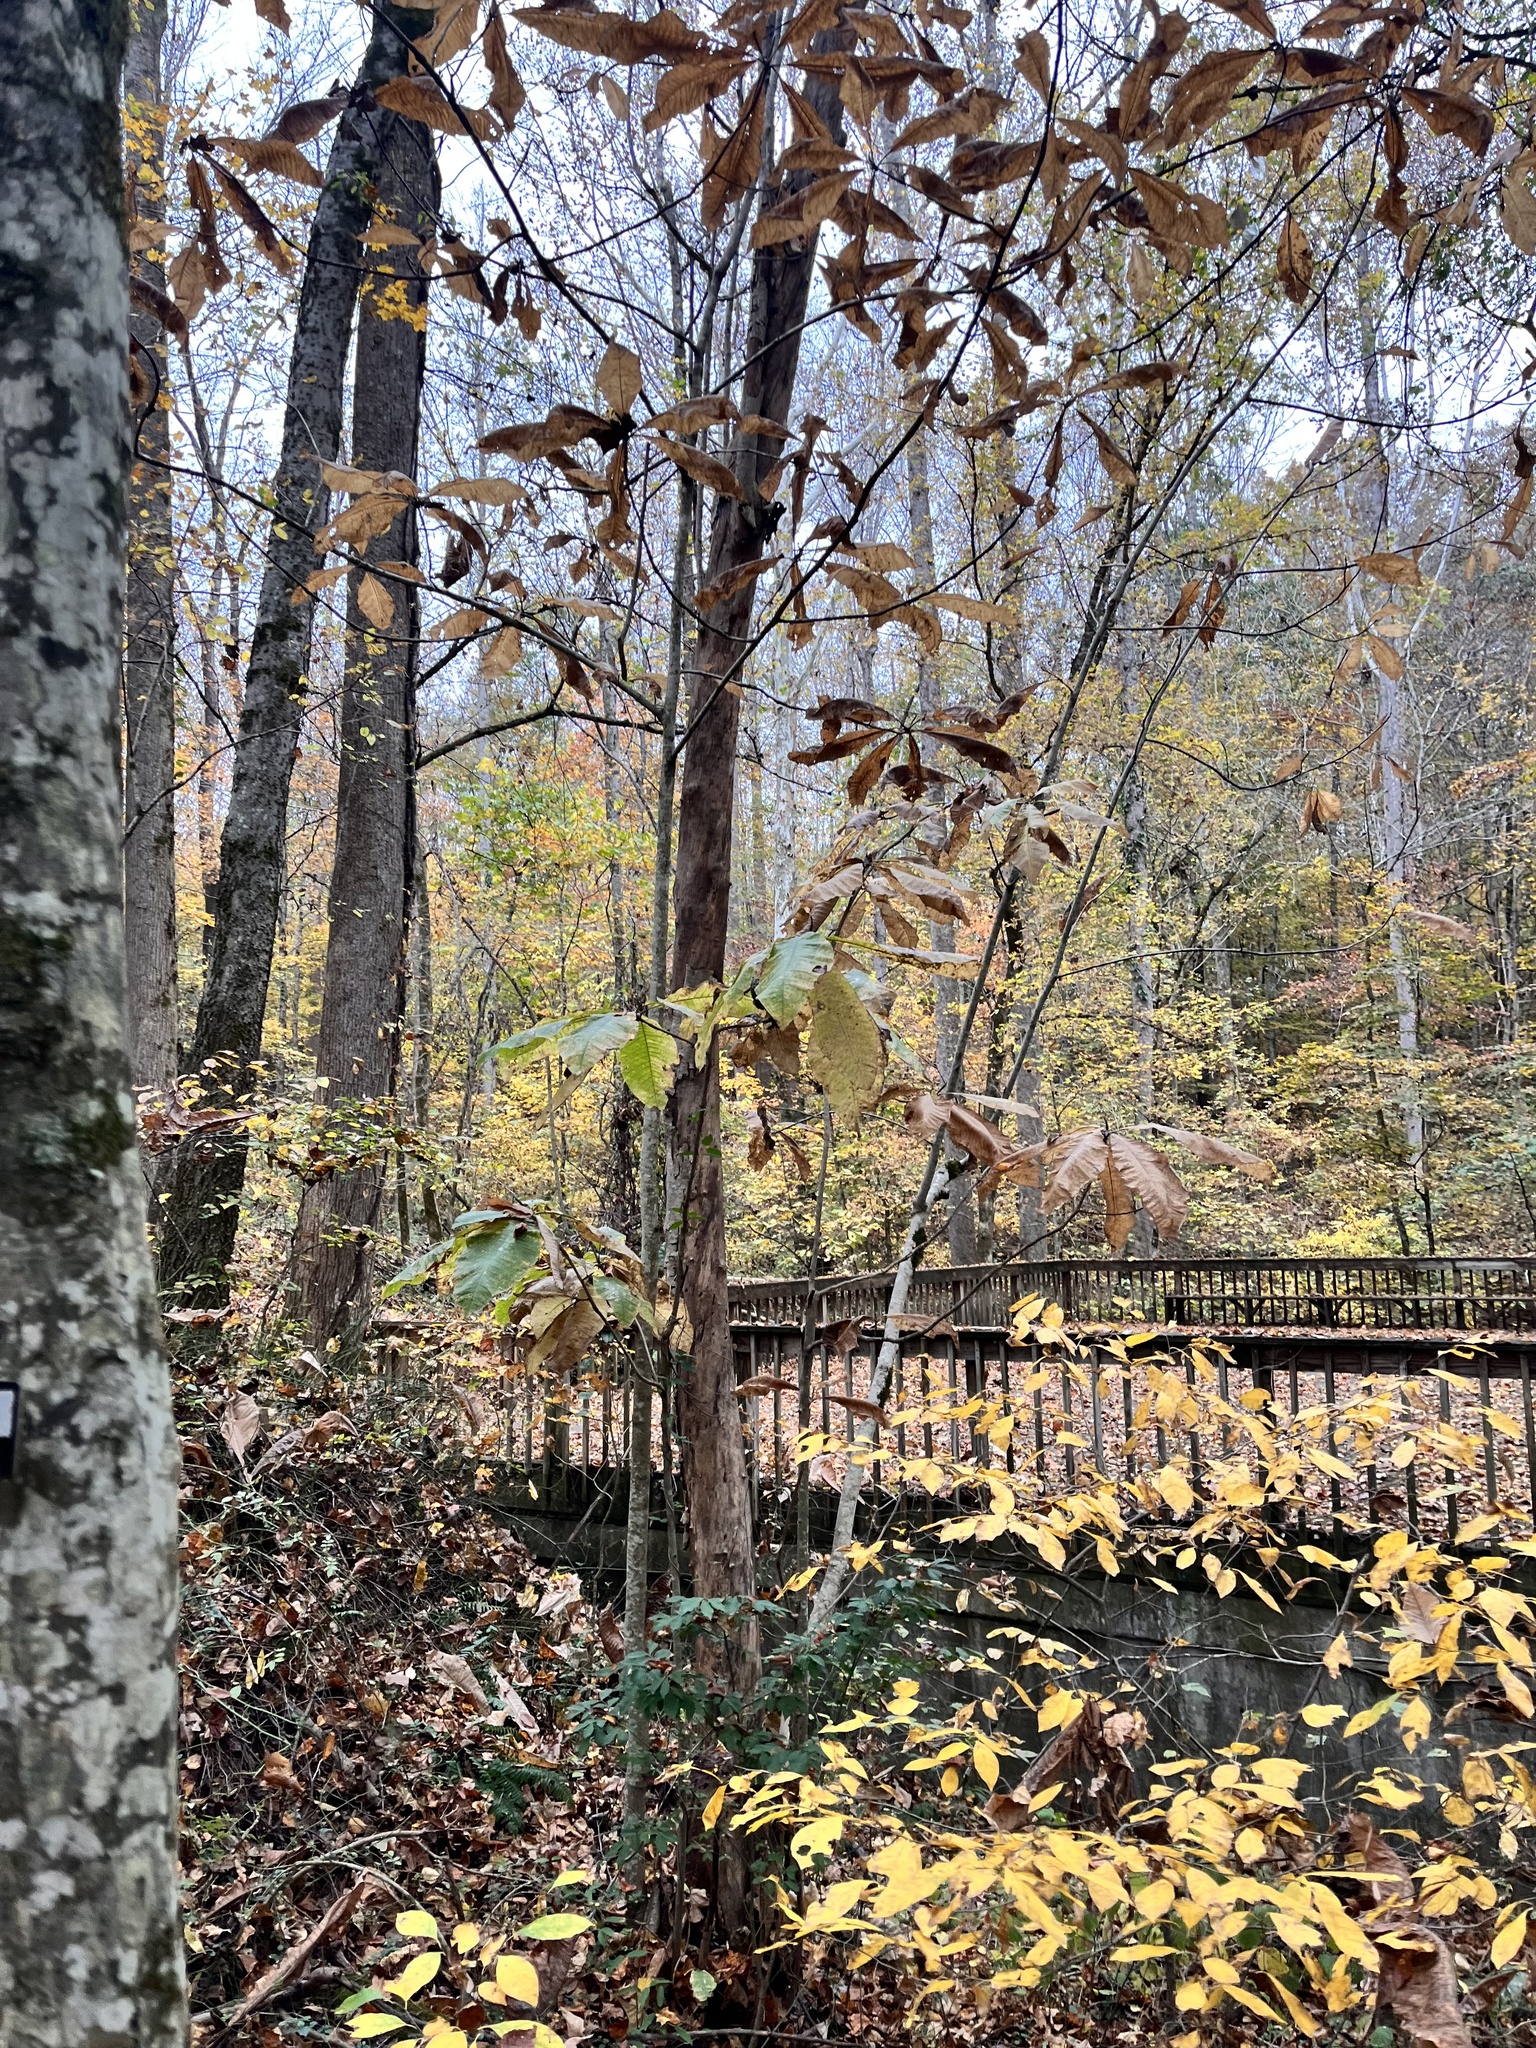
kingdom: Plantae
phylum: Tracheophyta
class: Magnoliopsida
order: Magnoliales
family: Magnoliaceae
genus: Magnolia
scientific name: Magnolia tripetala
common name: Umbrella magnolia
